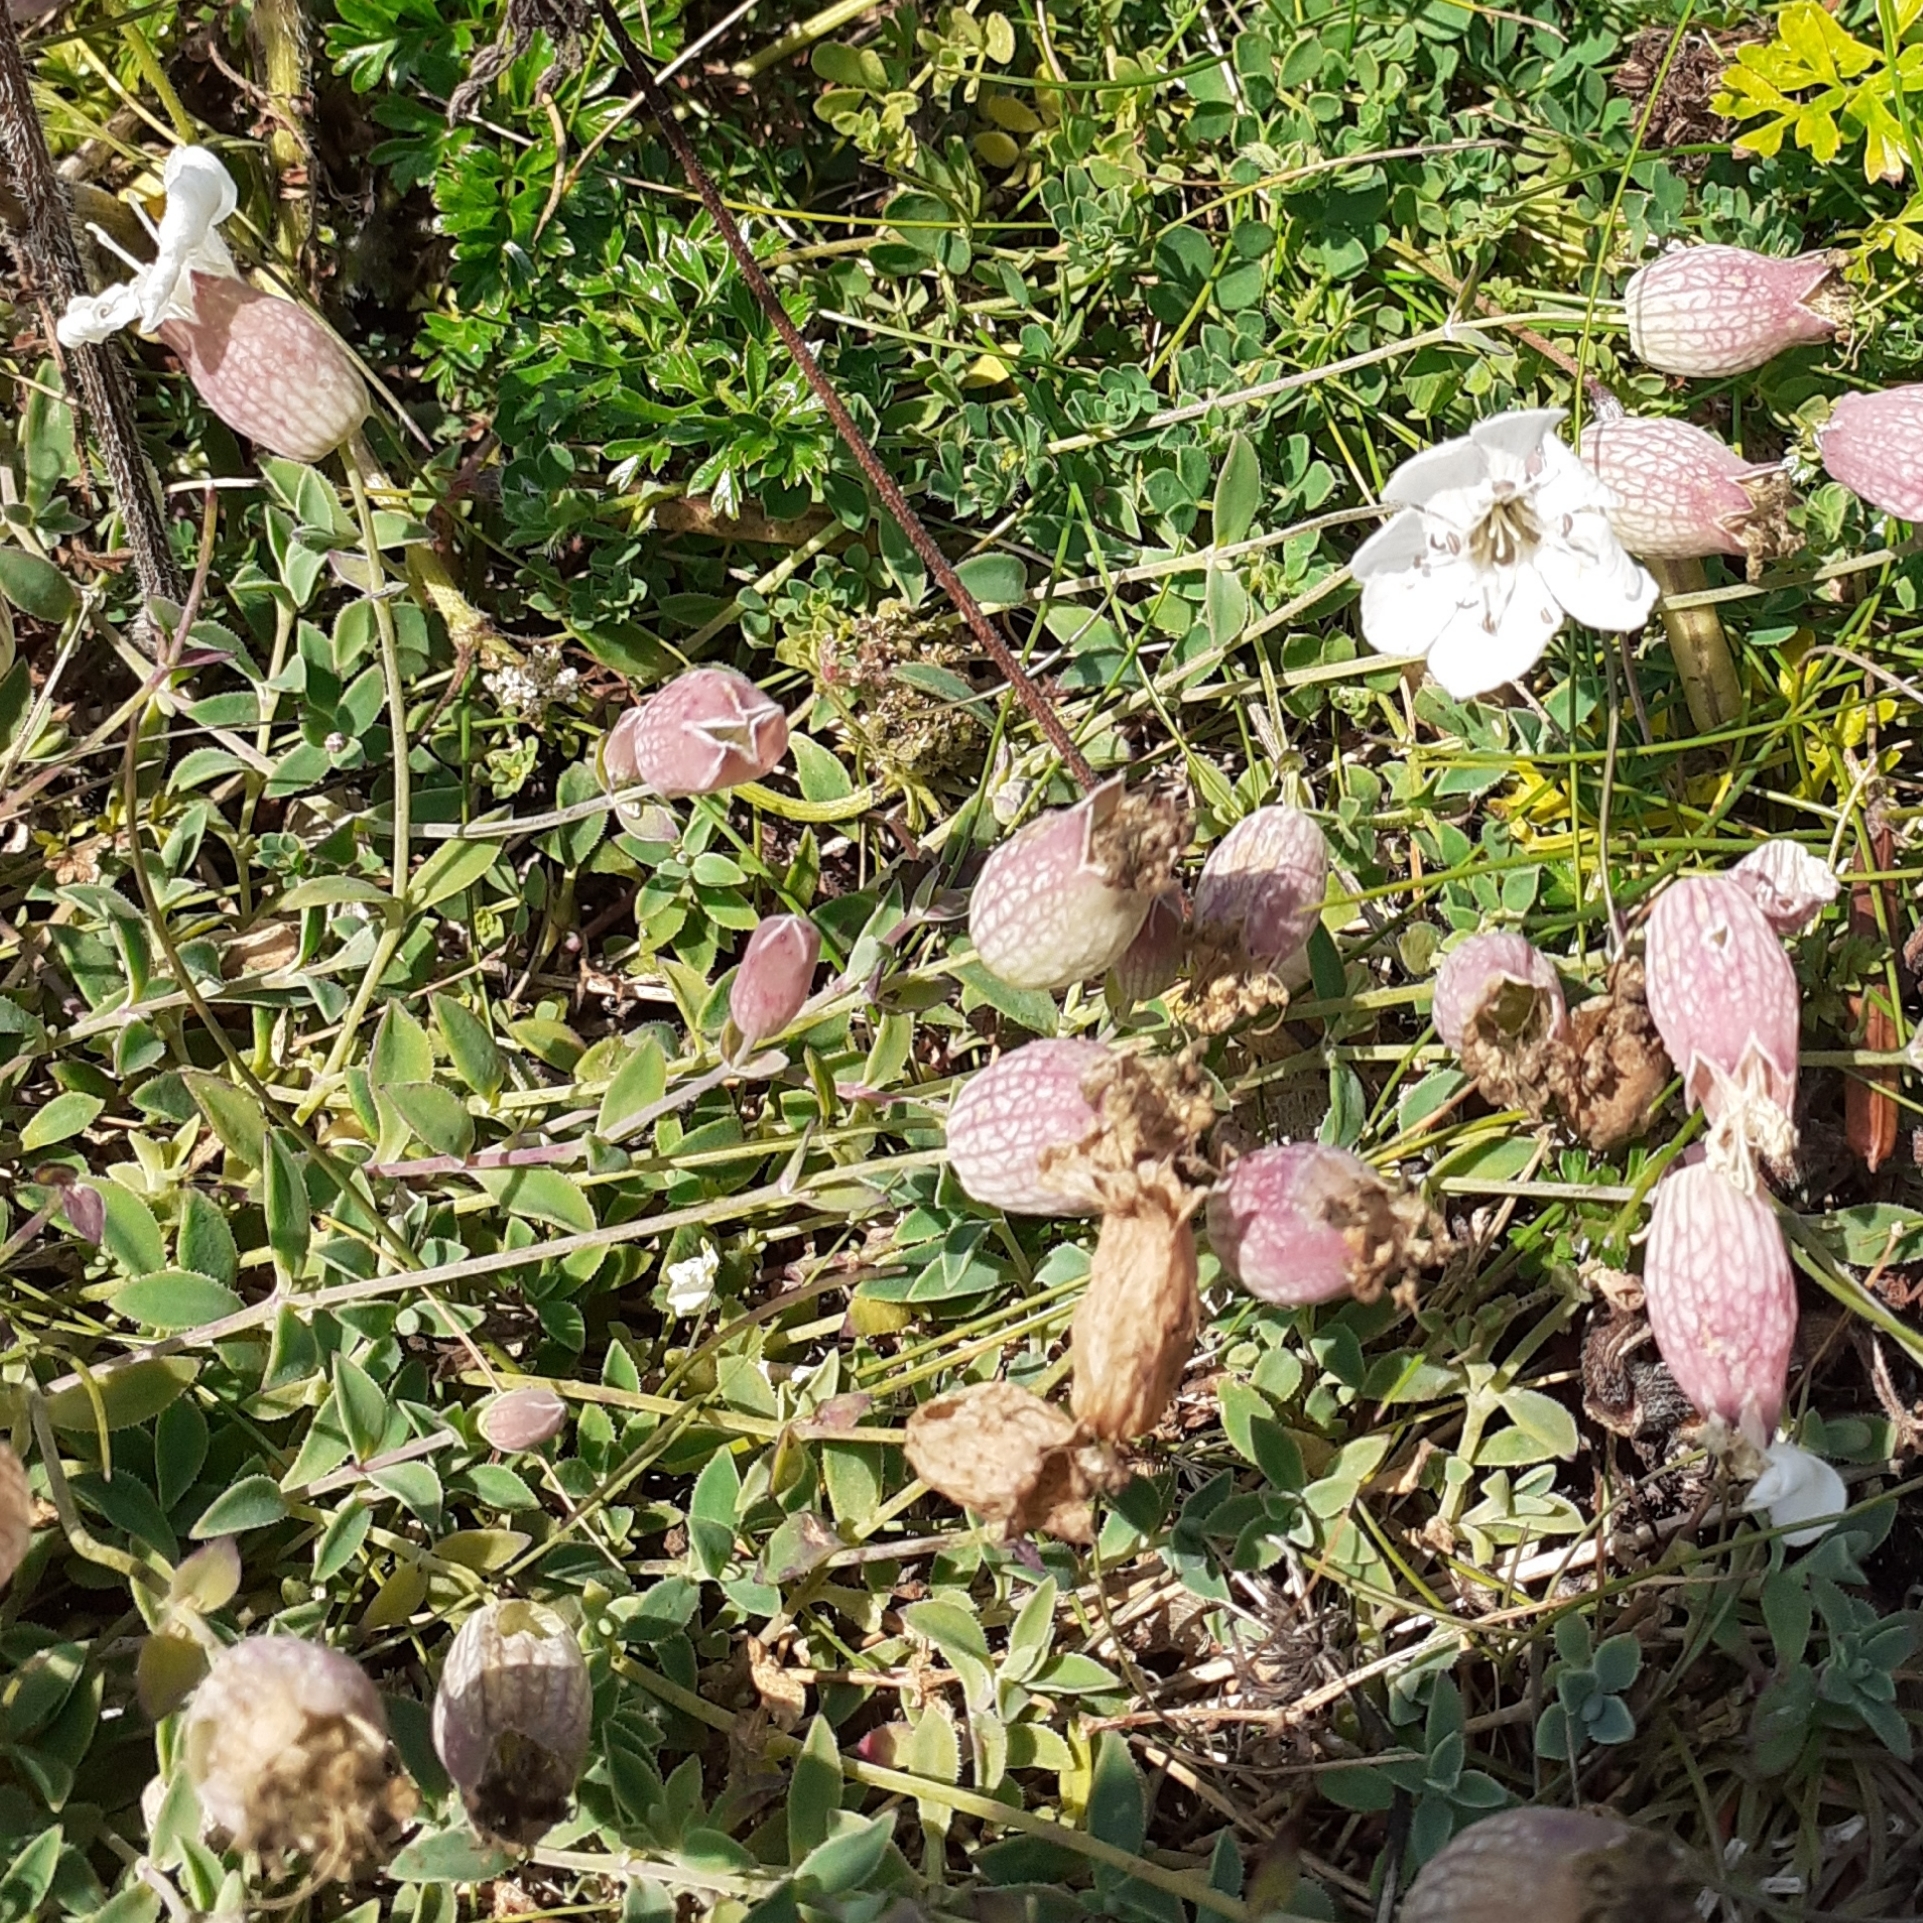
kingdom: Plantae
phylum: Tracheophyta
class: Magnoliopsida
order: Caryophyllales
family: Caryophyllaceae
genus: Silene
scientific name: Silene vulgaris
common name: Bladder campion
